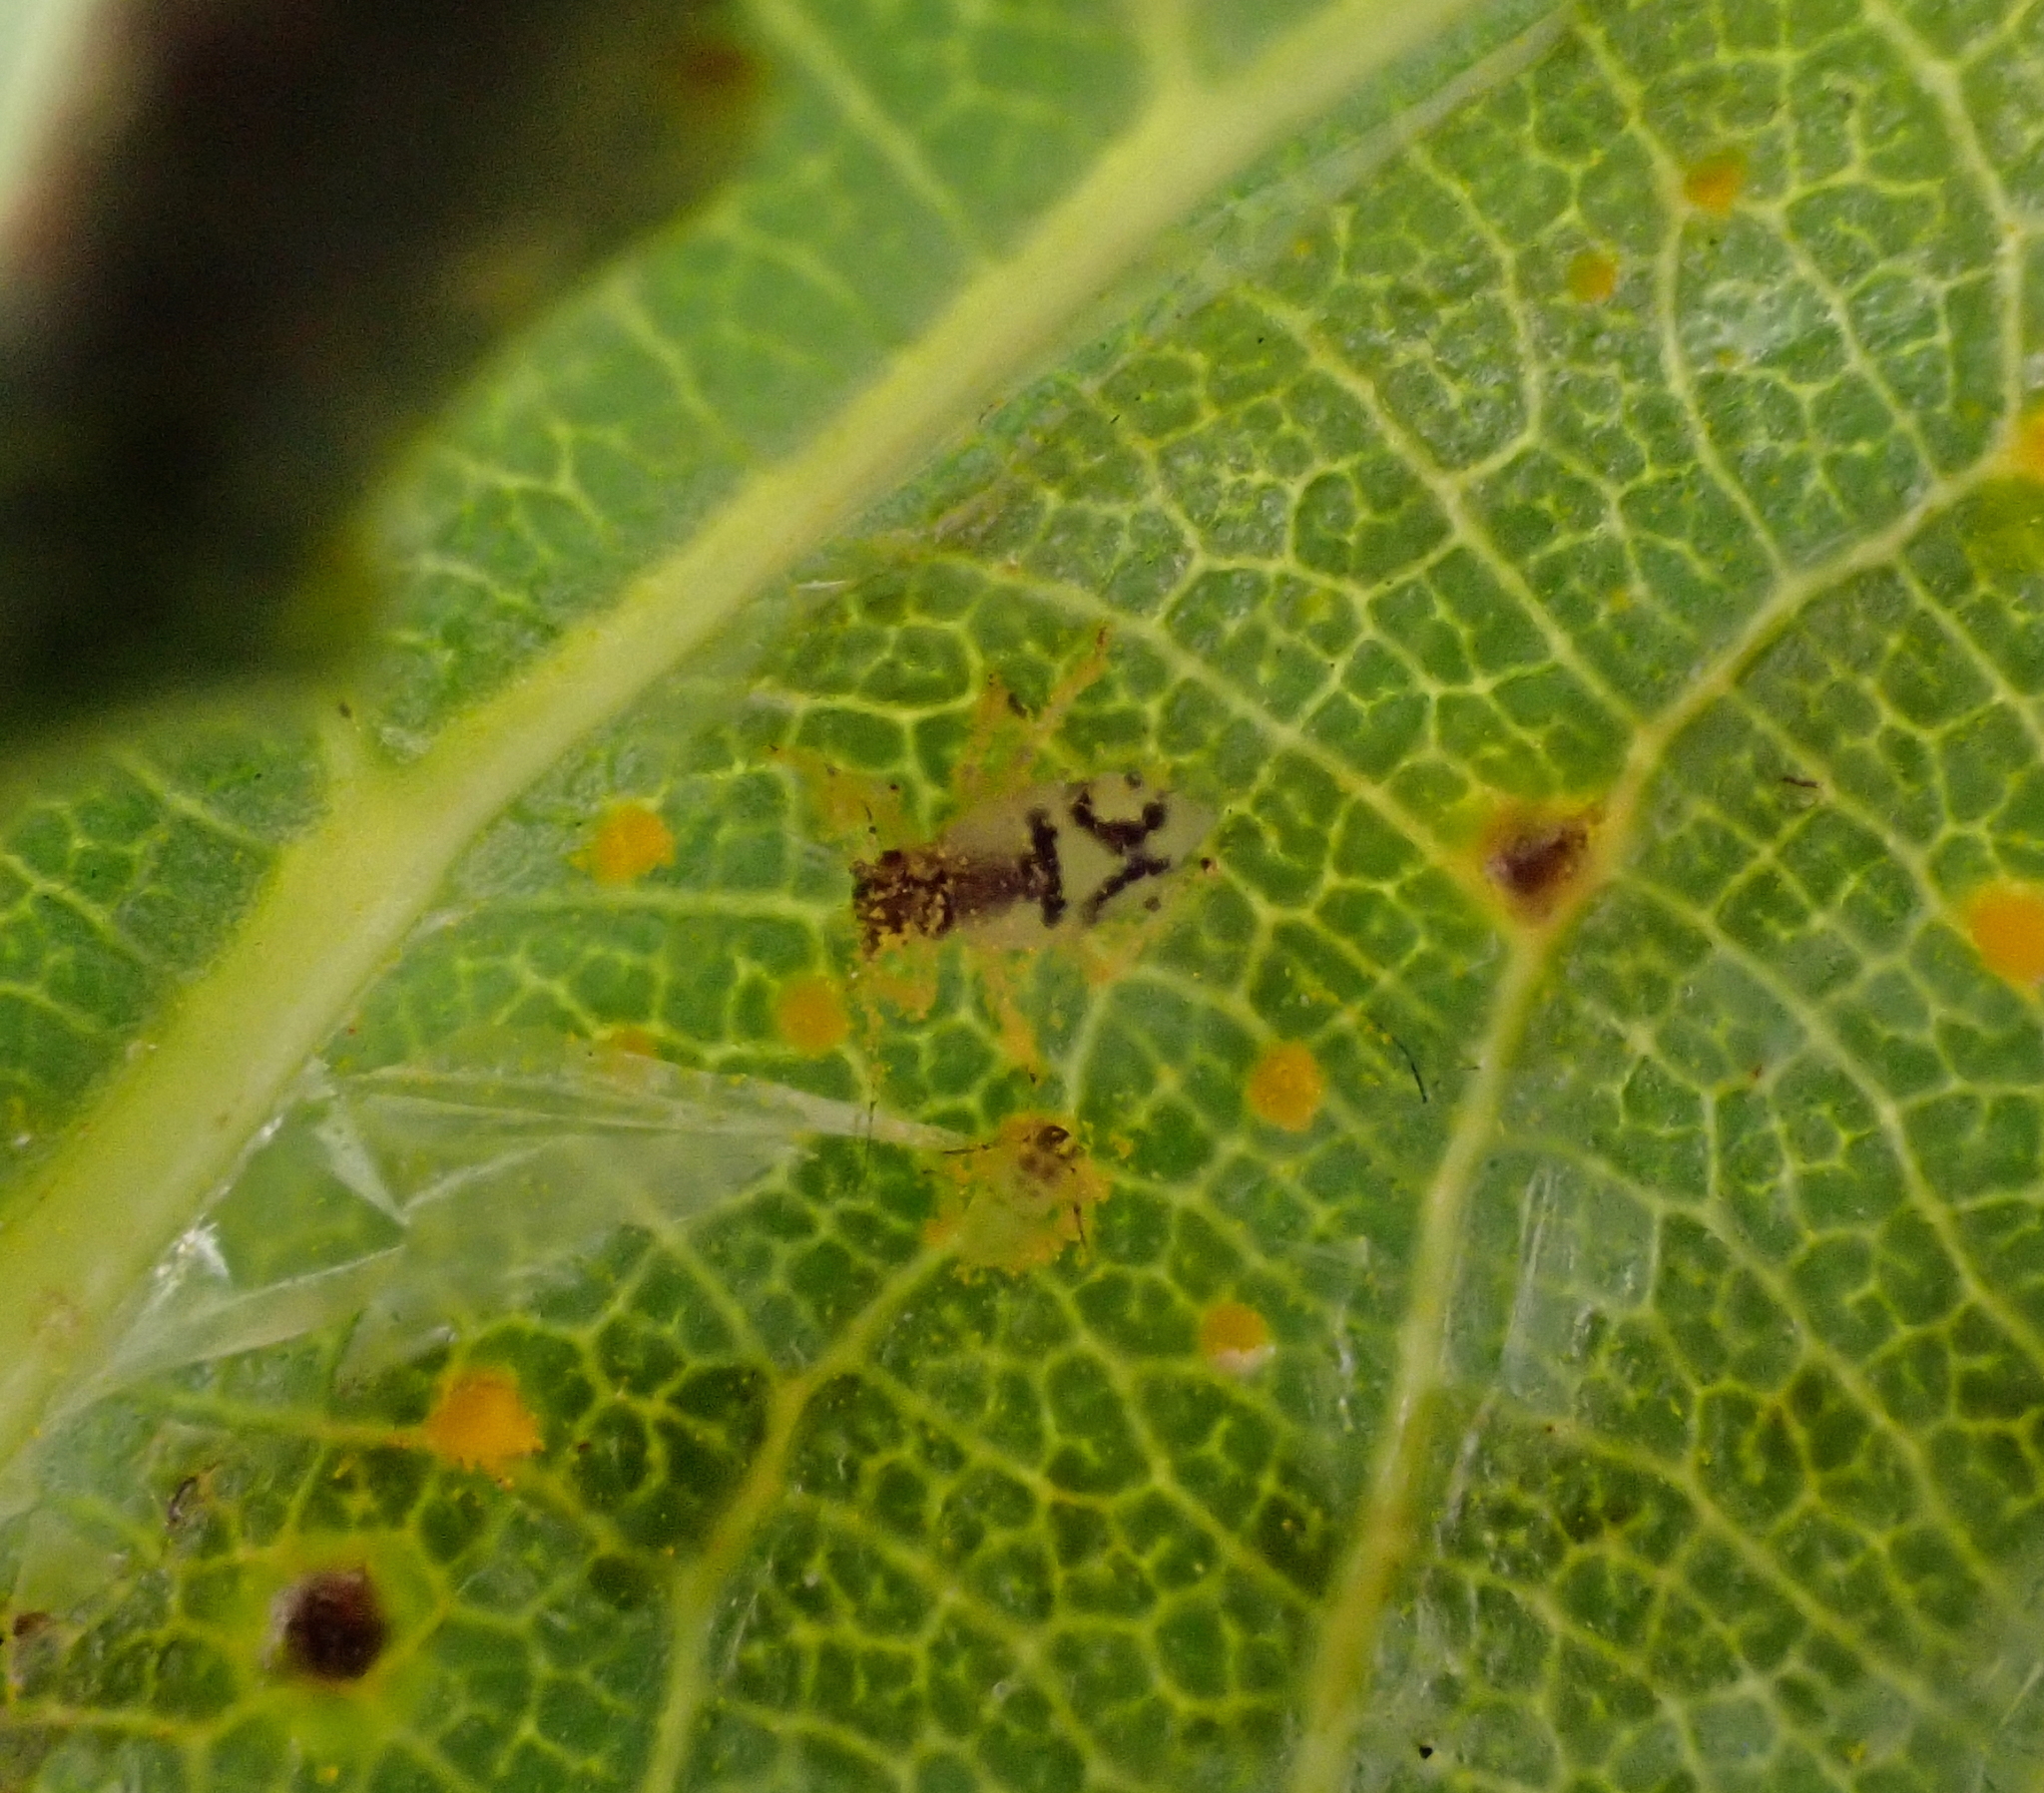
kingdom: Animalia
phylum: Arthropoda
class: Insecta
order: Hemiptera
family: Aphididae
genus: Chaitophorus
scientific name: Chaitophorus leucomelas
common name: Aphid
